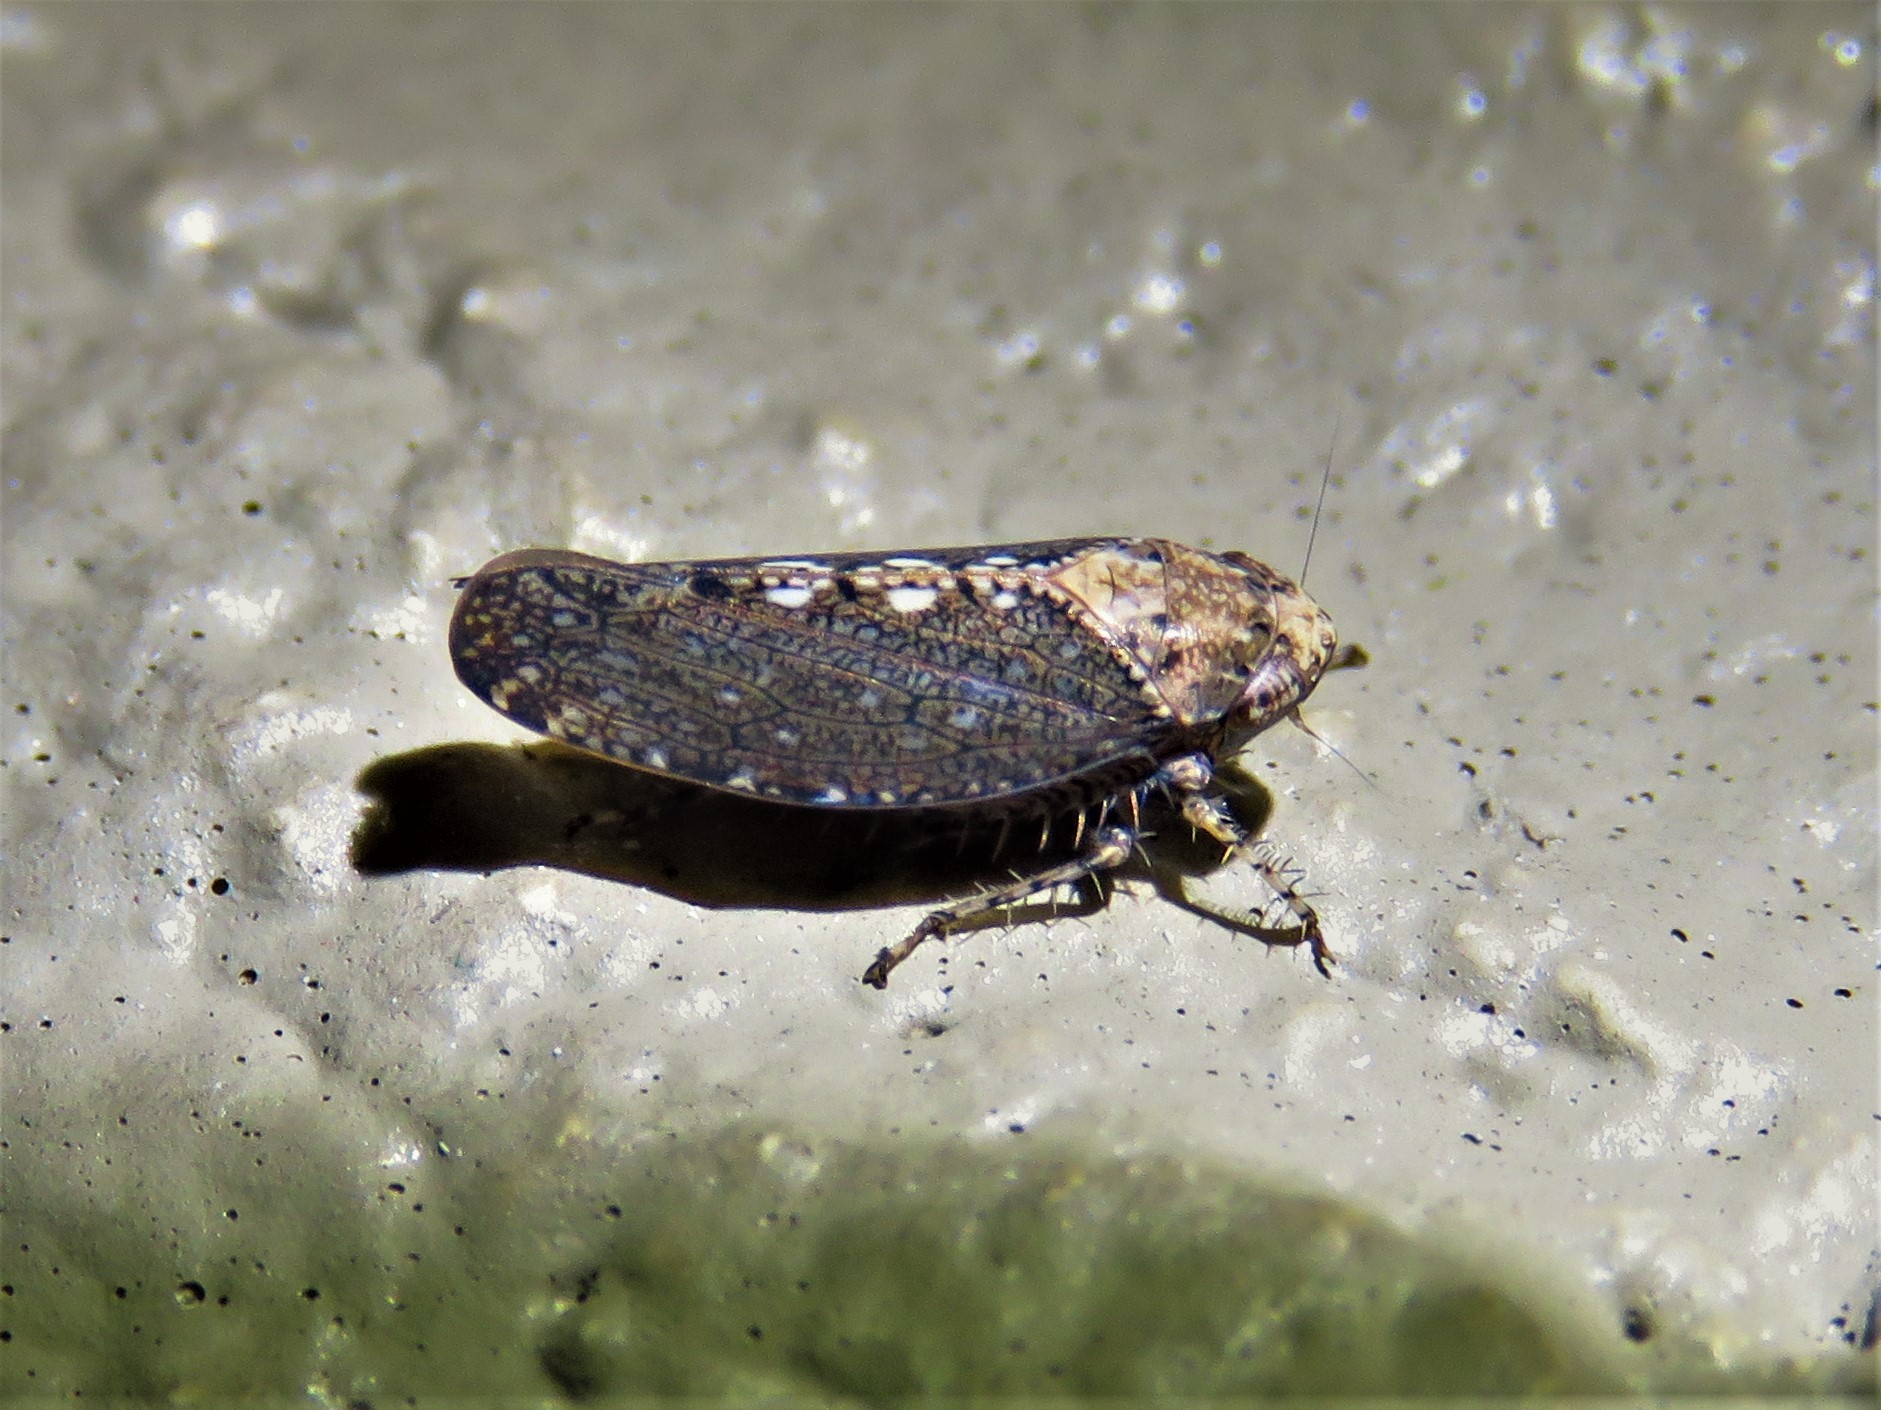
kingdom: Animalia
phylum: Arthropoda
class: Insecta
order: Hemiptera
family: Cicadellidae
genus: Excultanus
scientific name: Excultanus excultus
